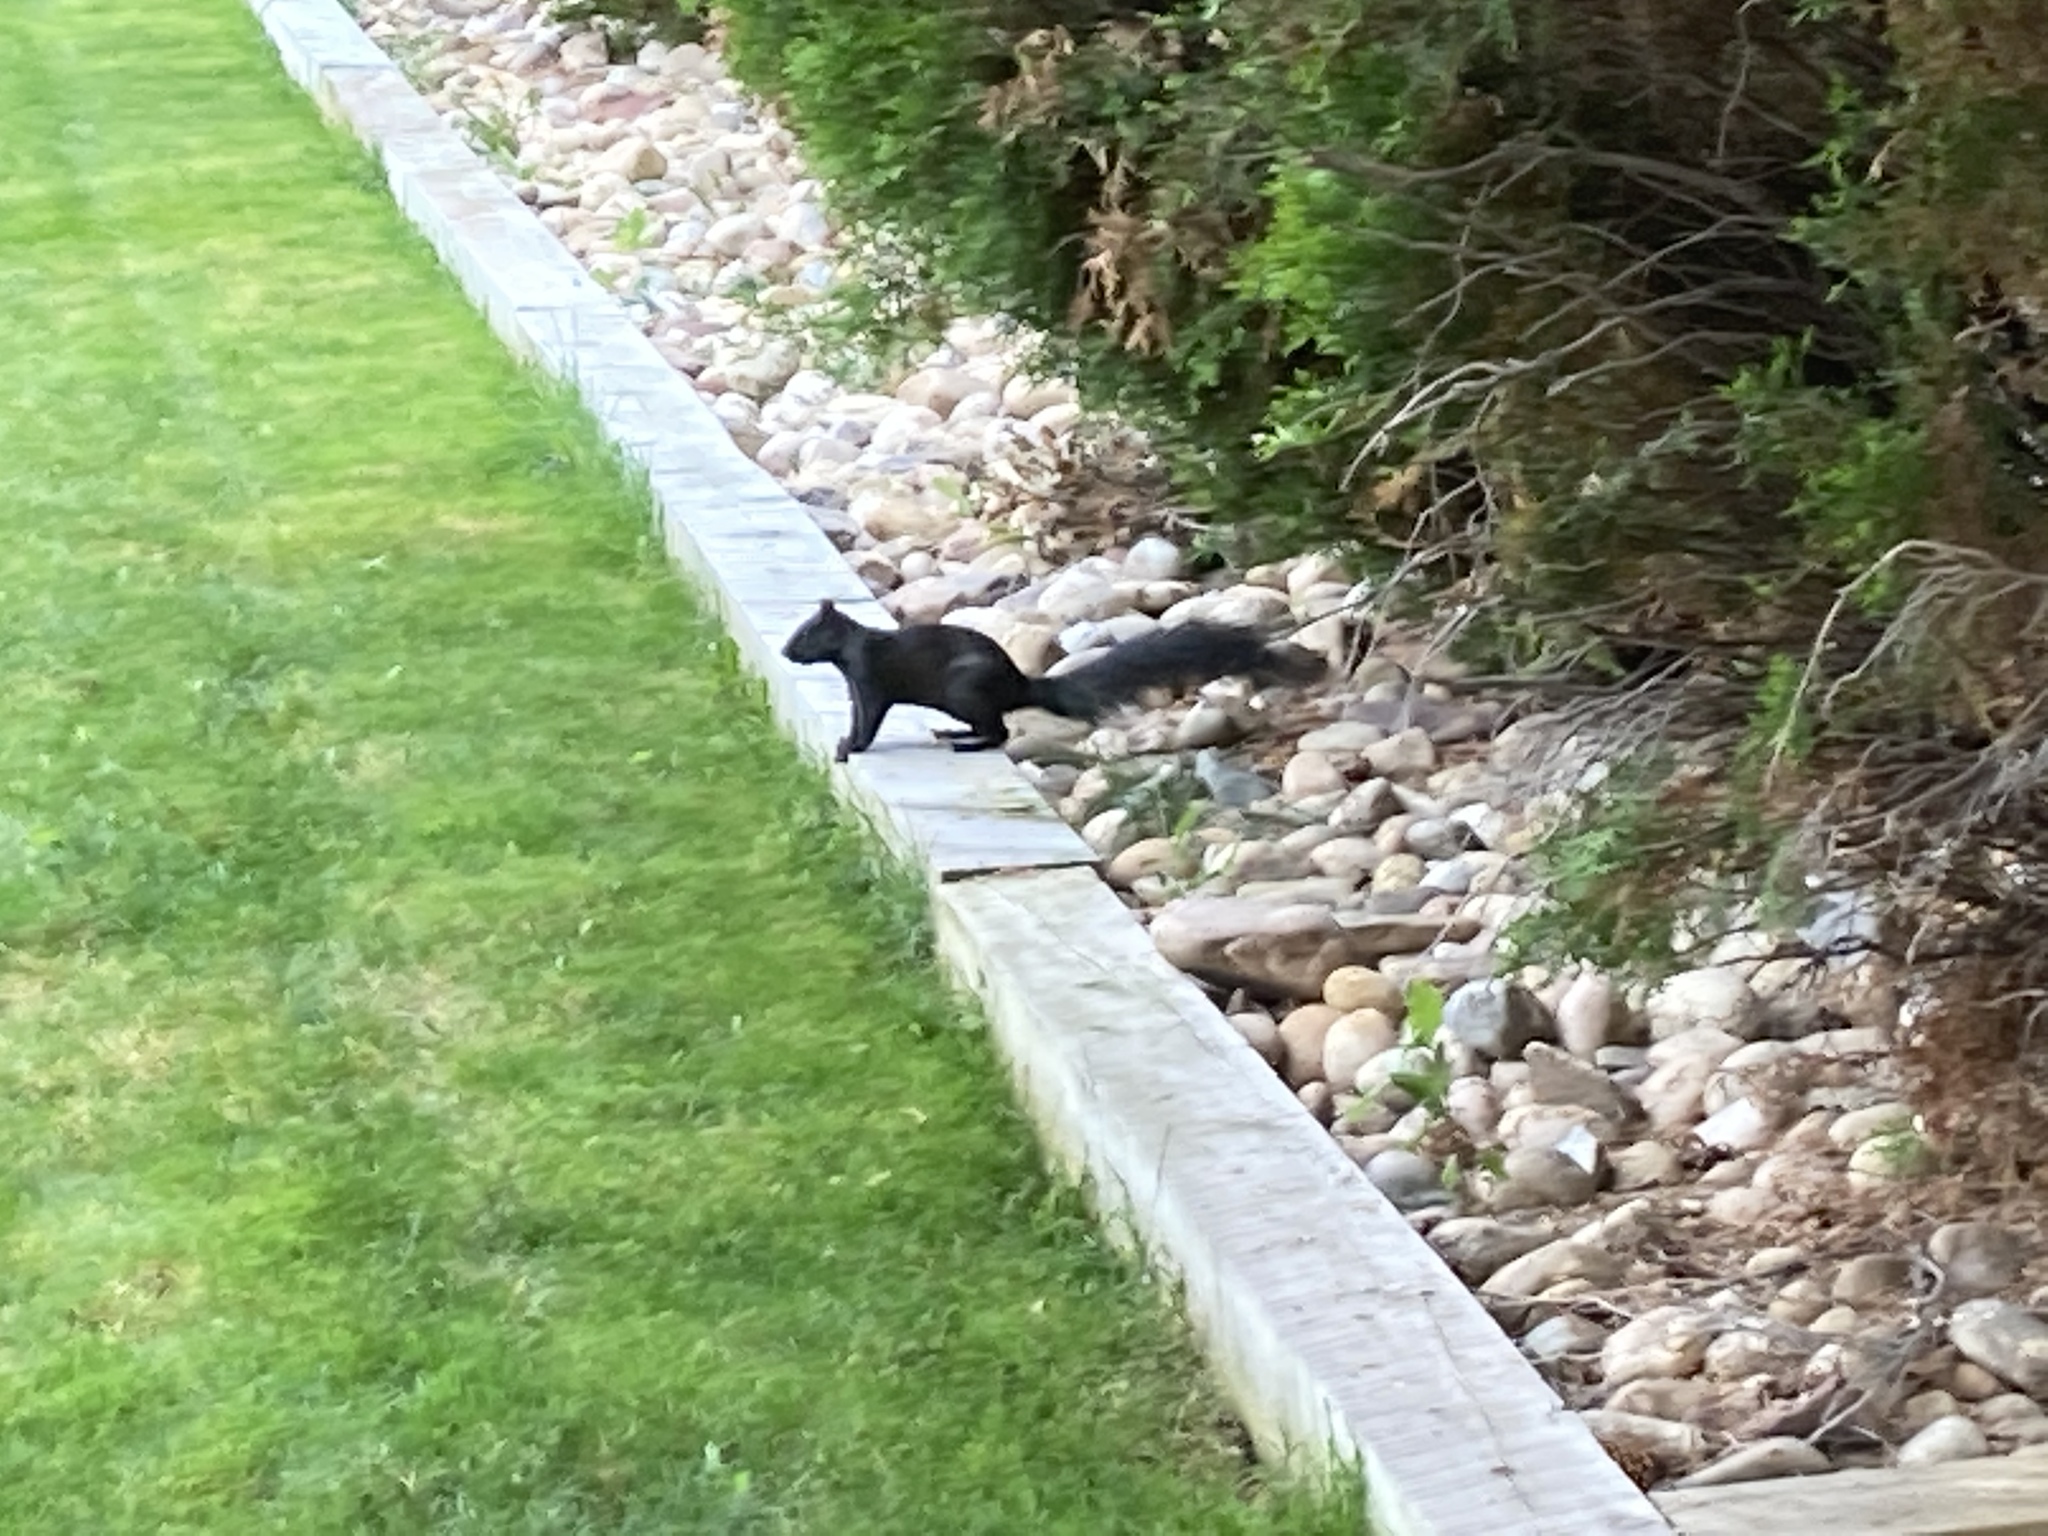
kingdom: Animalia
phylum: Chordata
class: Mammalia
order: Rodentia
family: Sciuridae
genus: Sciurus
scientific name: Sciurus niger
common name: Fox squirrel
